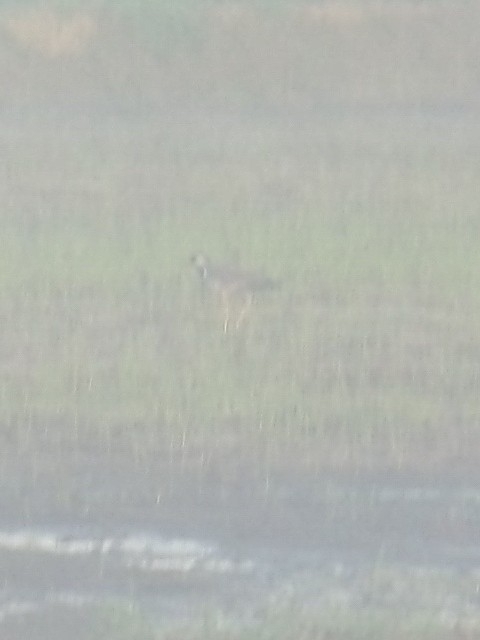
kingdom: Animalia
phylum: Chordata
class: Aves
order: Charadriiformes
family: Charadriidae
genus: Vanellus
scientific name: Vanellus indicus
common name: Red-wattled lapwing
